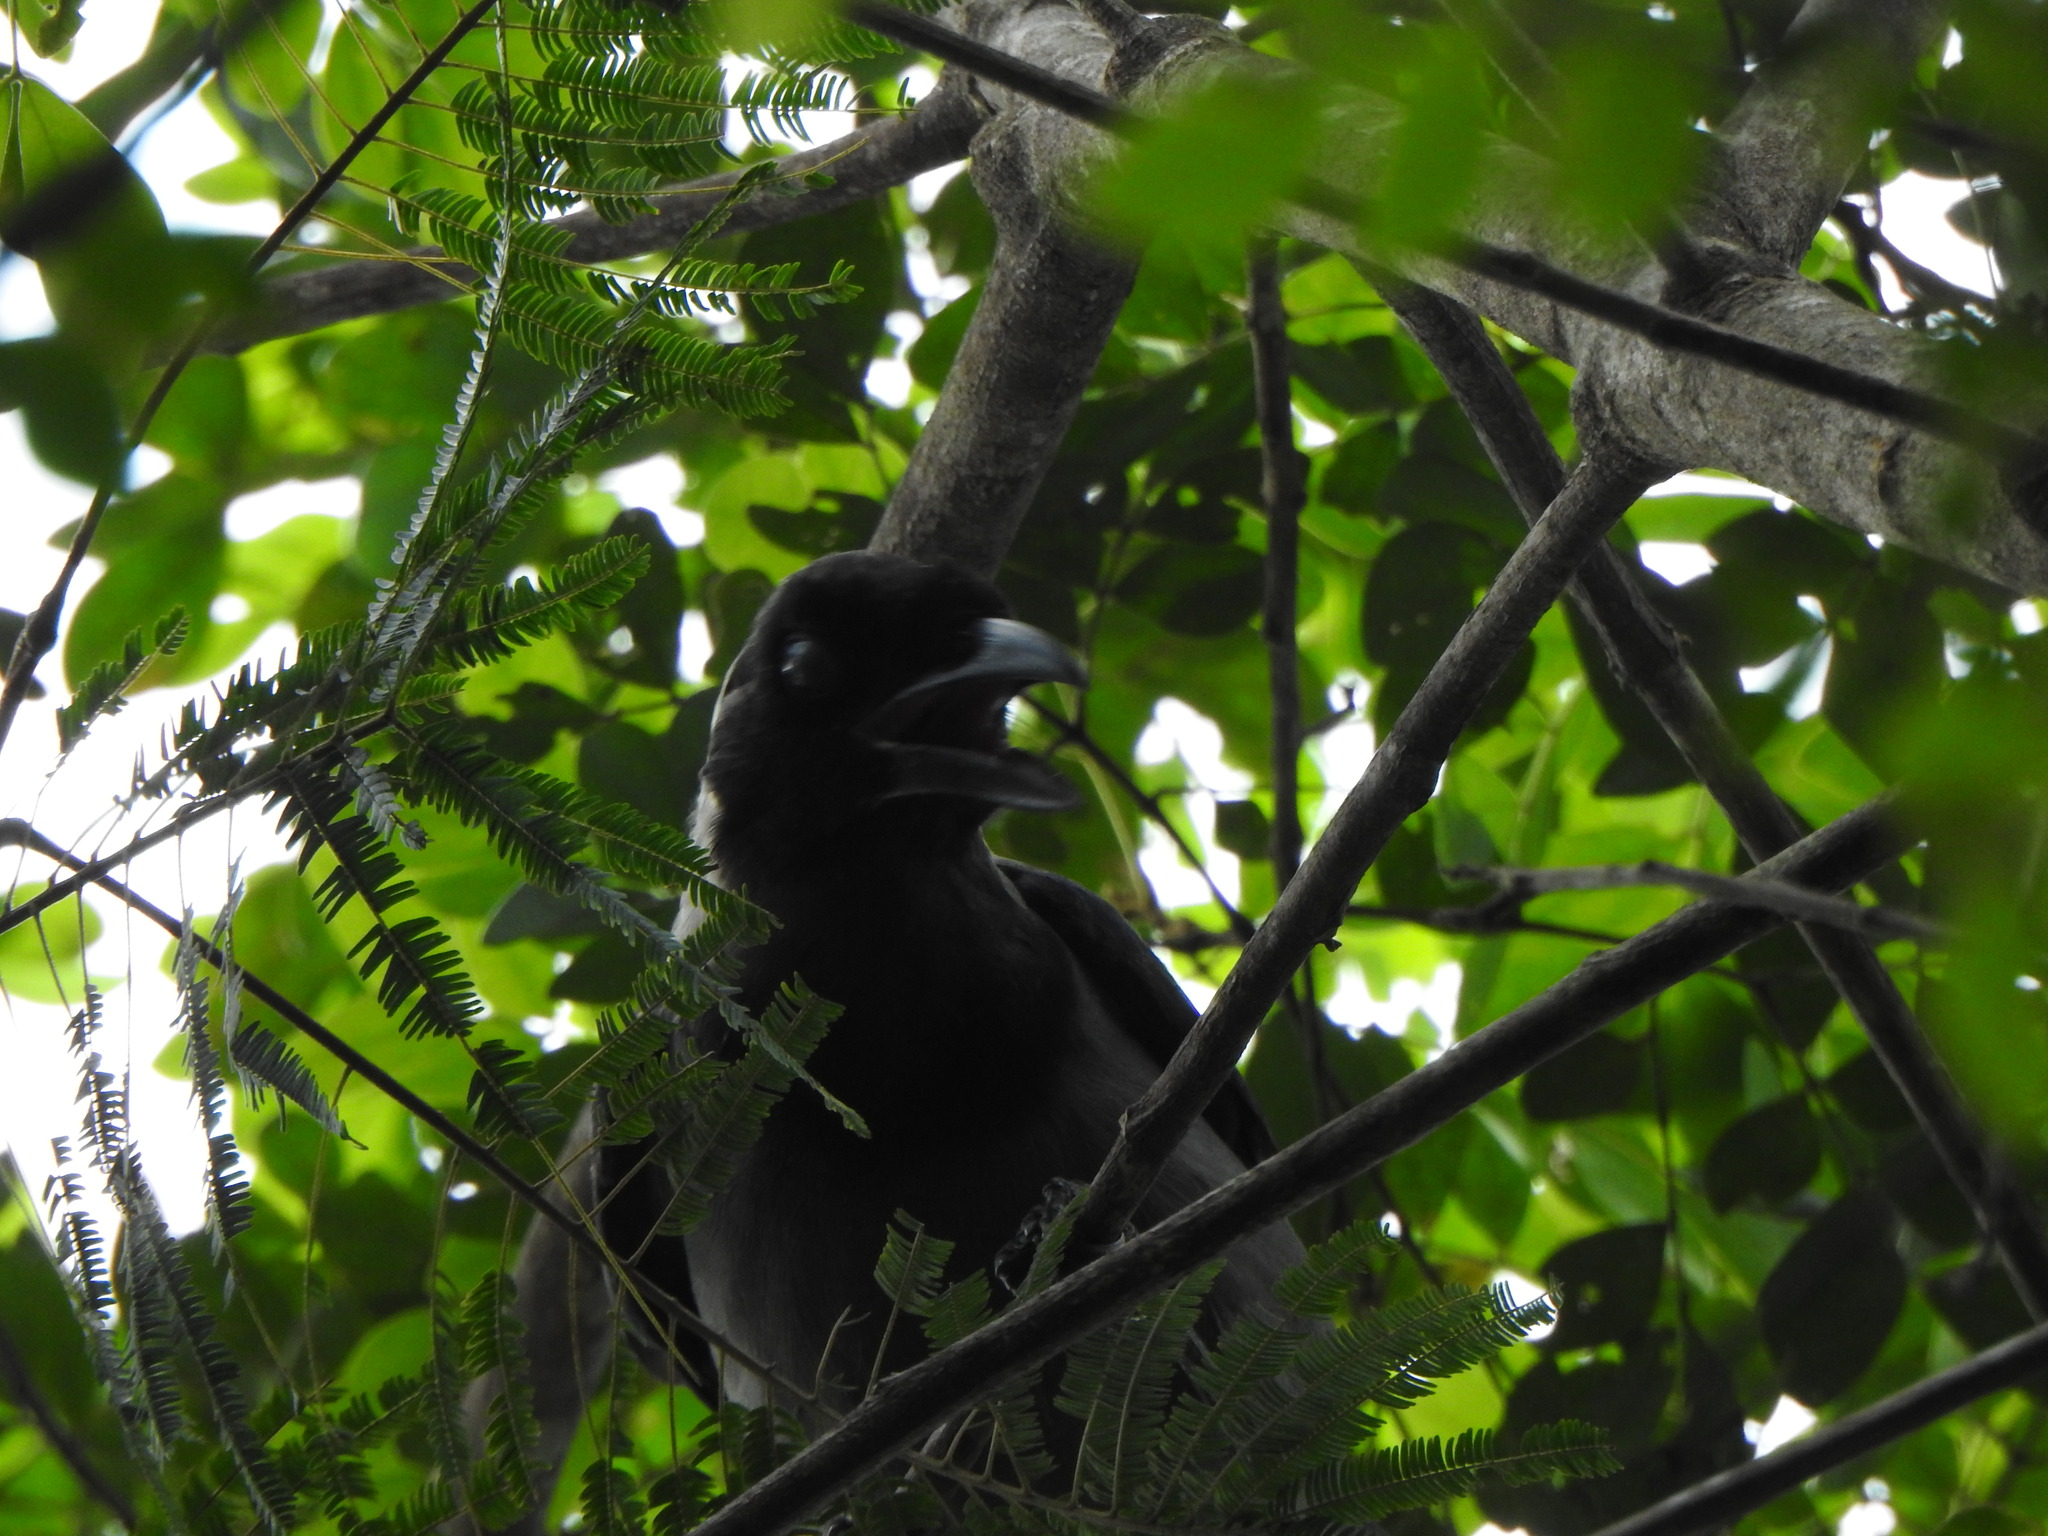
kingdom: Animalia
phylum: Chordata
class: Aves
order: Passeriformes
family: Corvidae
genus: Cyanocorax
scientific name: Cyanocorax violaceus
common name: Violaceous jay
